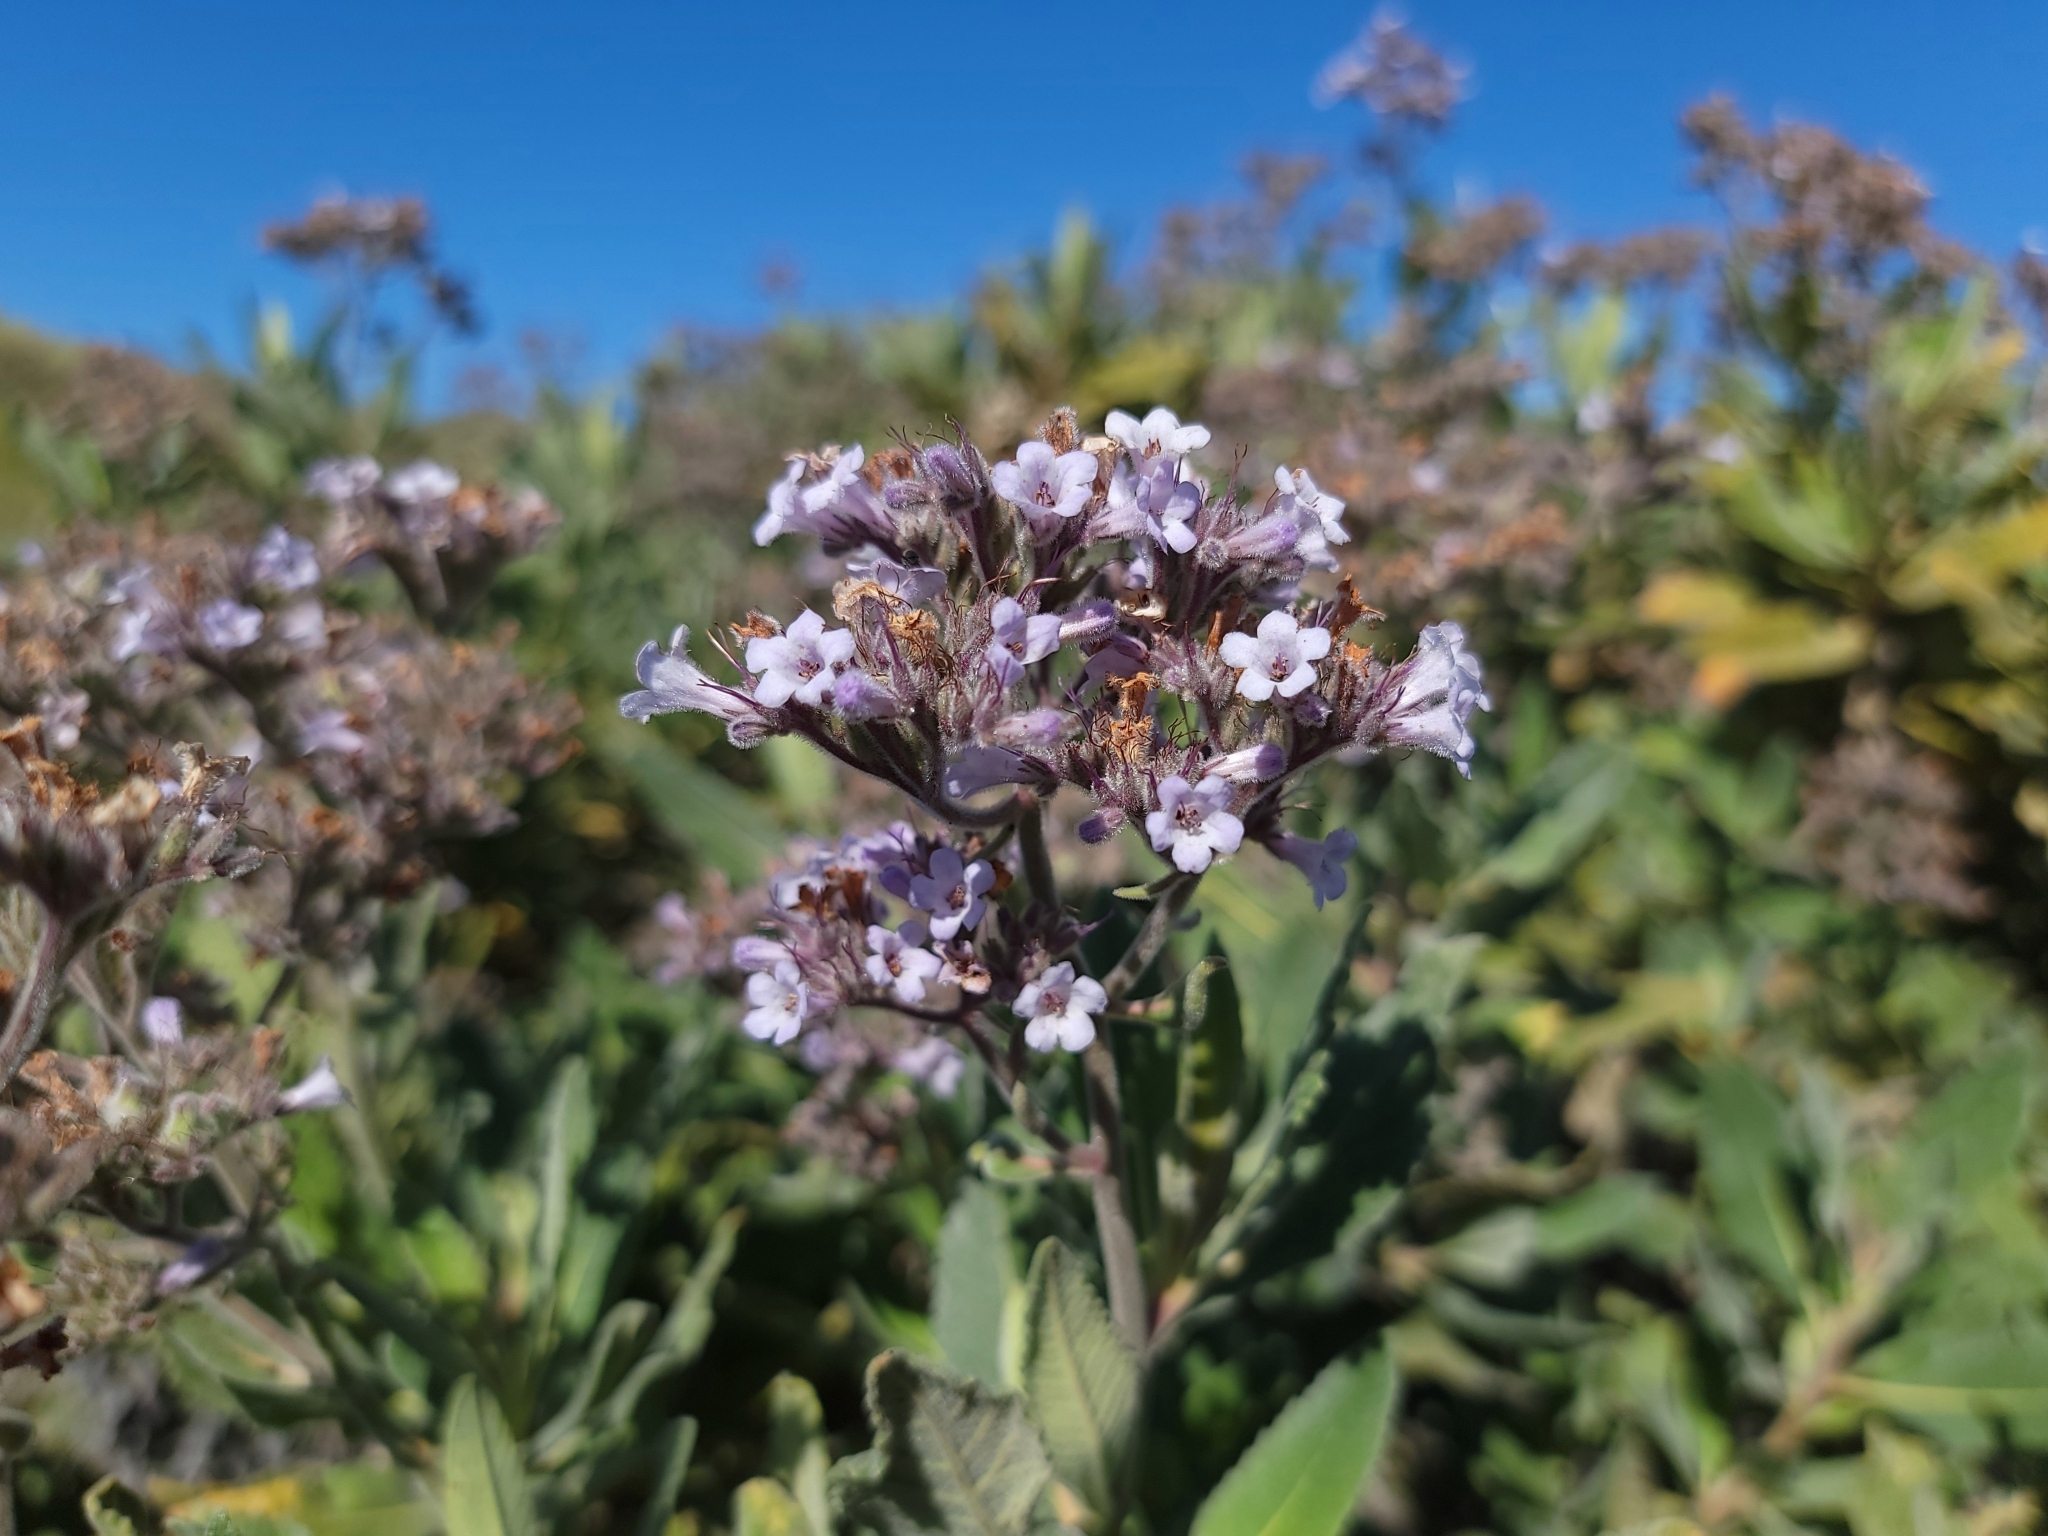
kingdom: Plantae
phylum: Tracheophyta
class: Magnoliopsida
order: Boraginales
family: Namaceae
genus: Eriodictyon
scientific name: Eriodictyon crassifolium
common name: Thick-leaf yerba-santa
